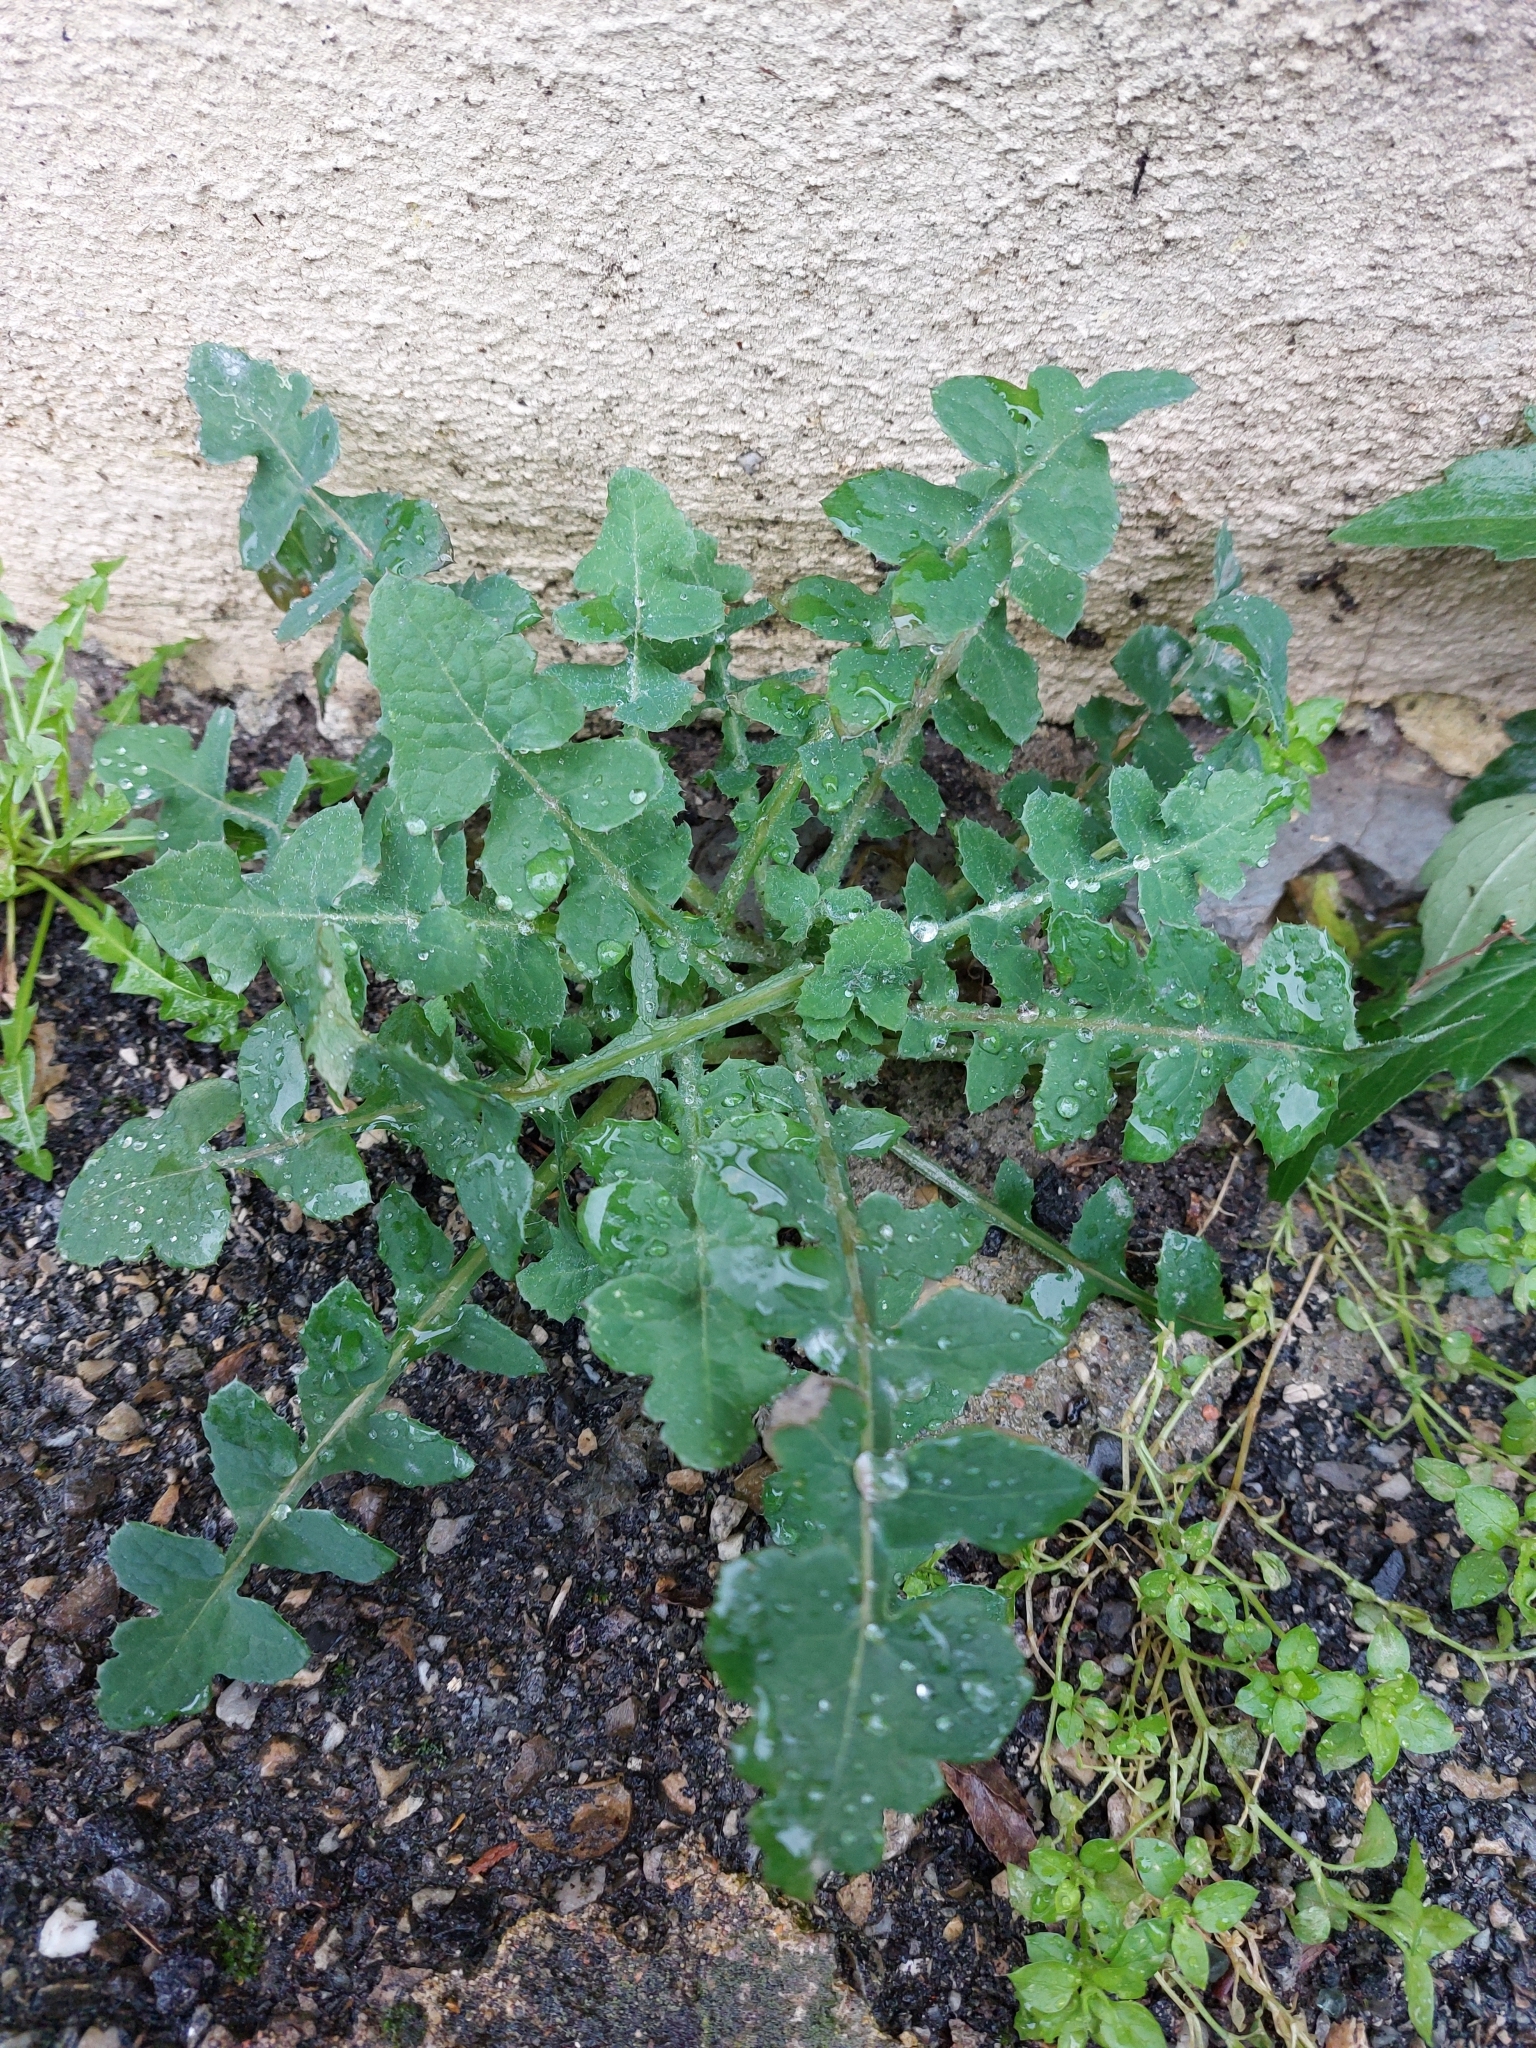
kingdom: Plantae
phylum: Tracheophyta
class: Magnoliopsida
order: Asterales
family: Asteraceae
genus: Sonchus
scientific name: Sonchus oleraceus
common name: Common sowthistle
